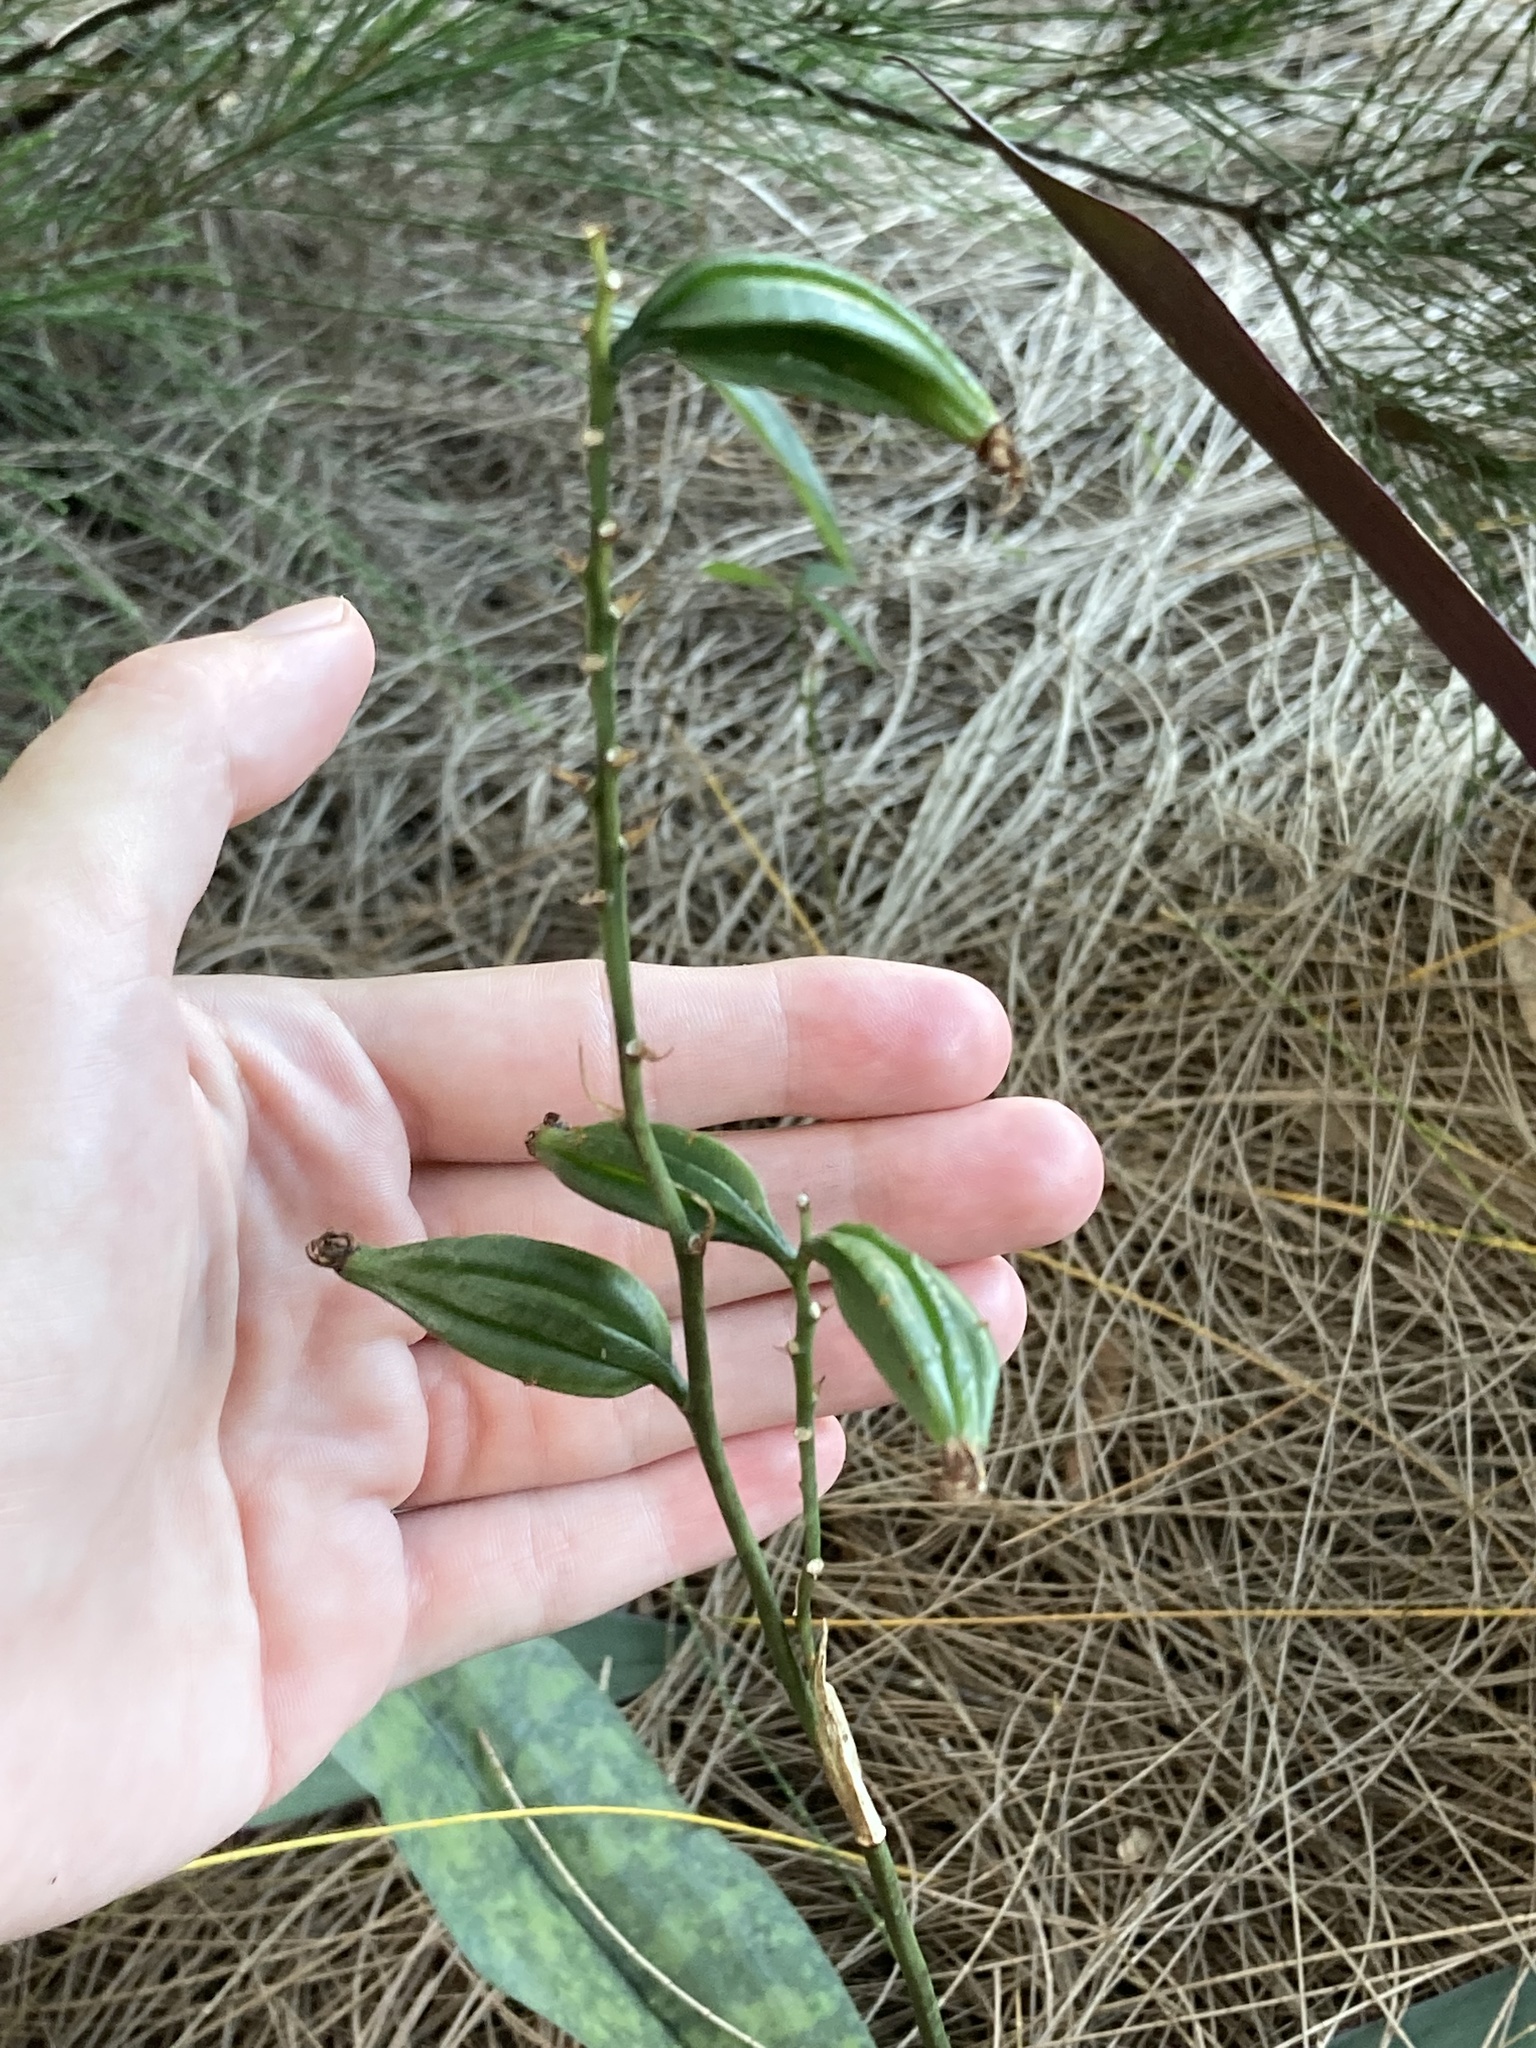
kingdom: Plantae
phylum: Tracheophyta
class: Liliopsida
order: Asparagales
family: Orchidaceae
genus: Eulophia
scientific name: Eulophia maculata
